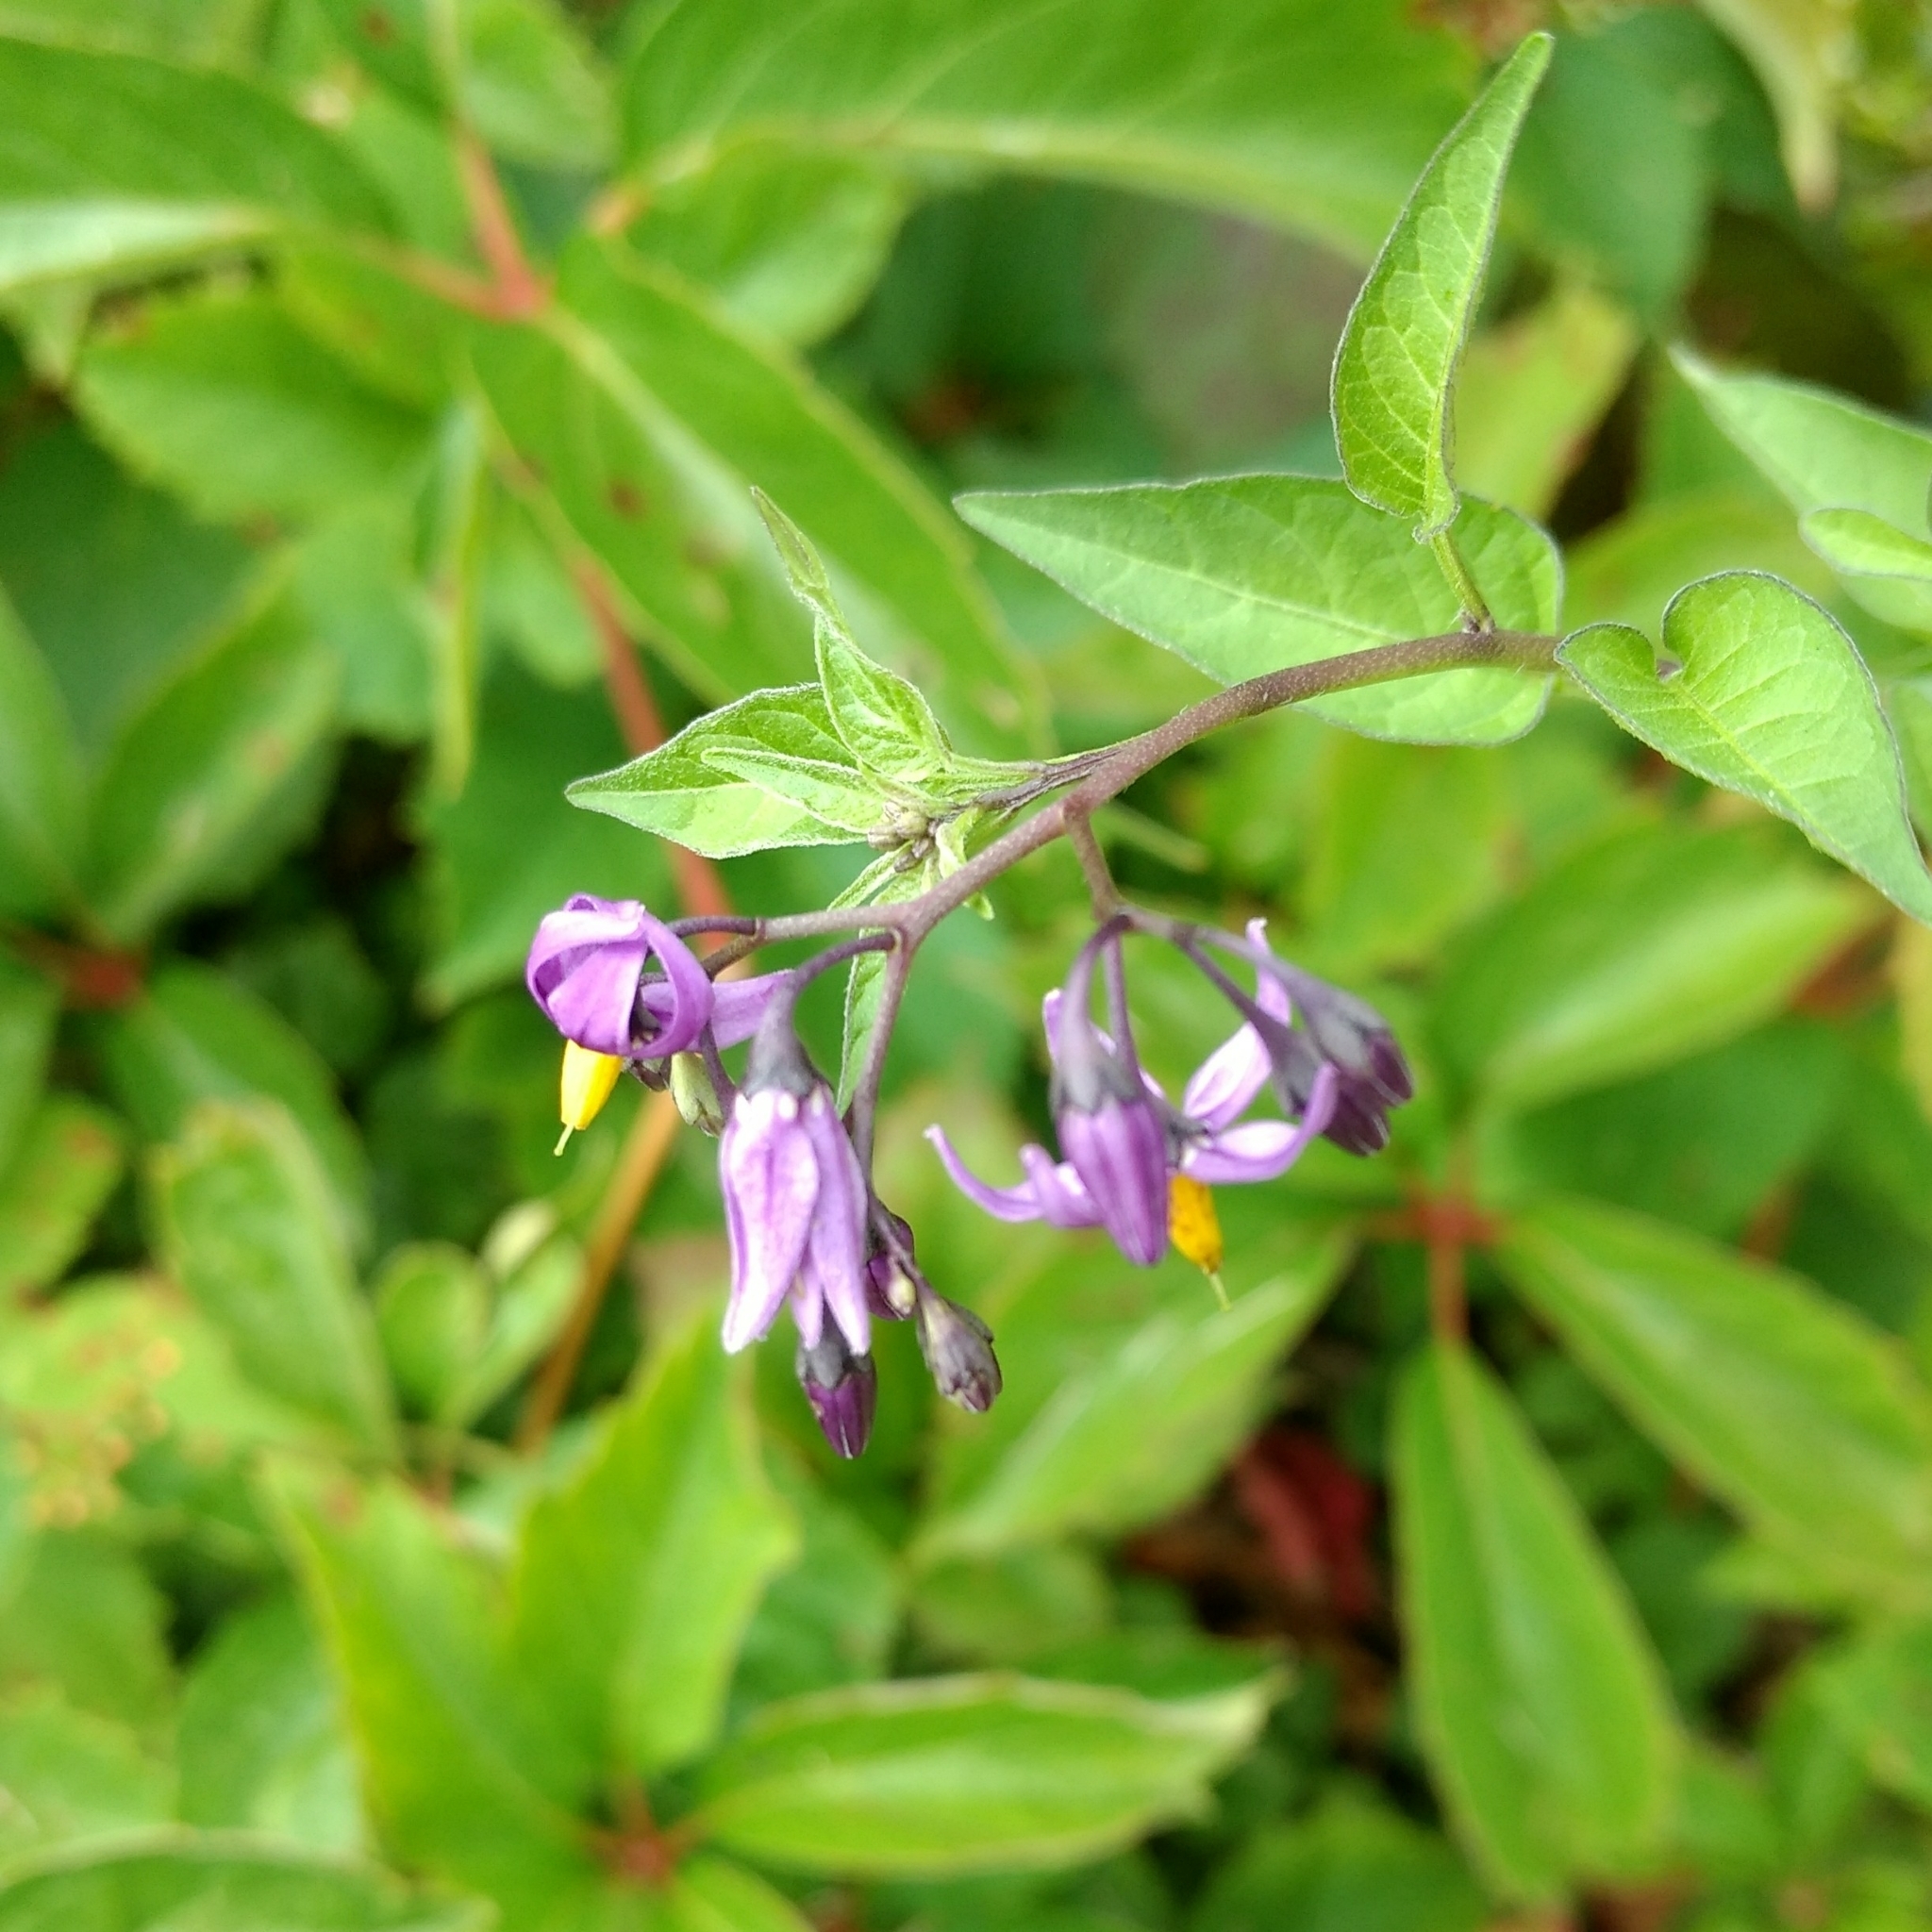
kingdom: Plantae
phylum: Tracheophyta
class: Magnoliopsida
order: Solanales
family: Solanaceae
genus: Solanum
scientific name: Solanum dulcamara
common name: Climbing nightshade
